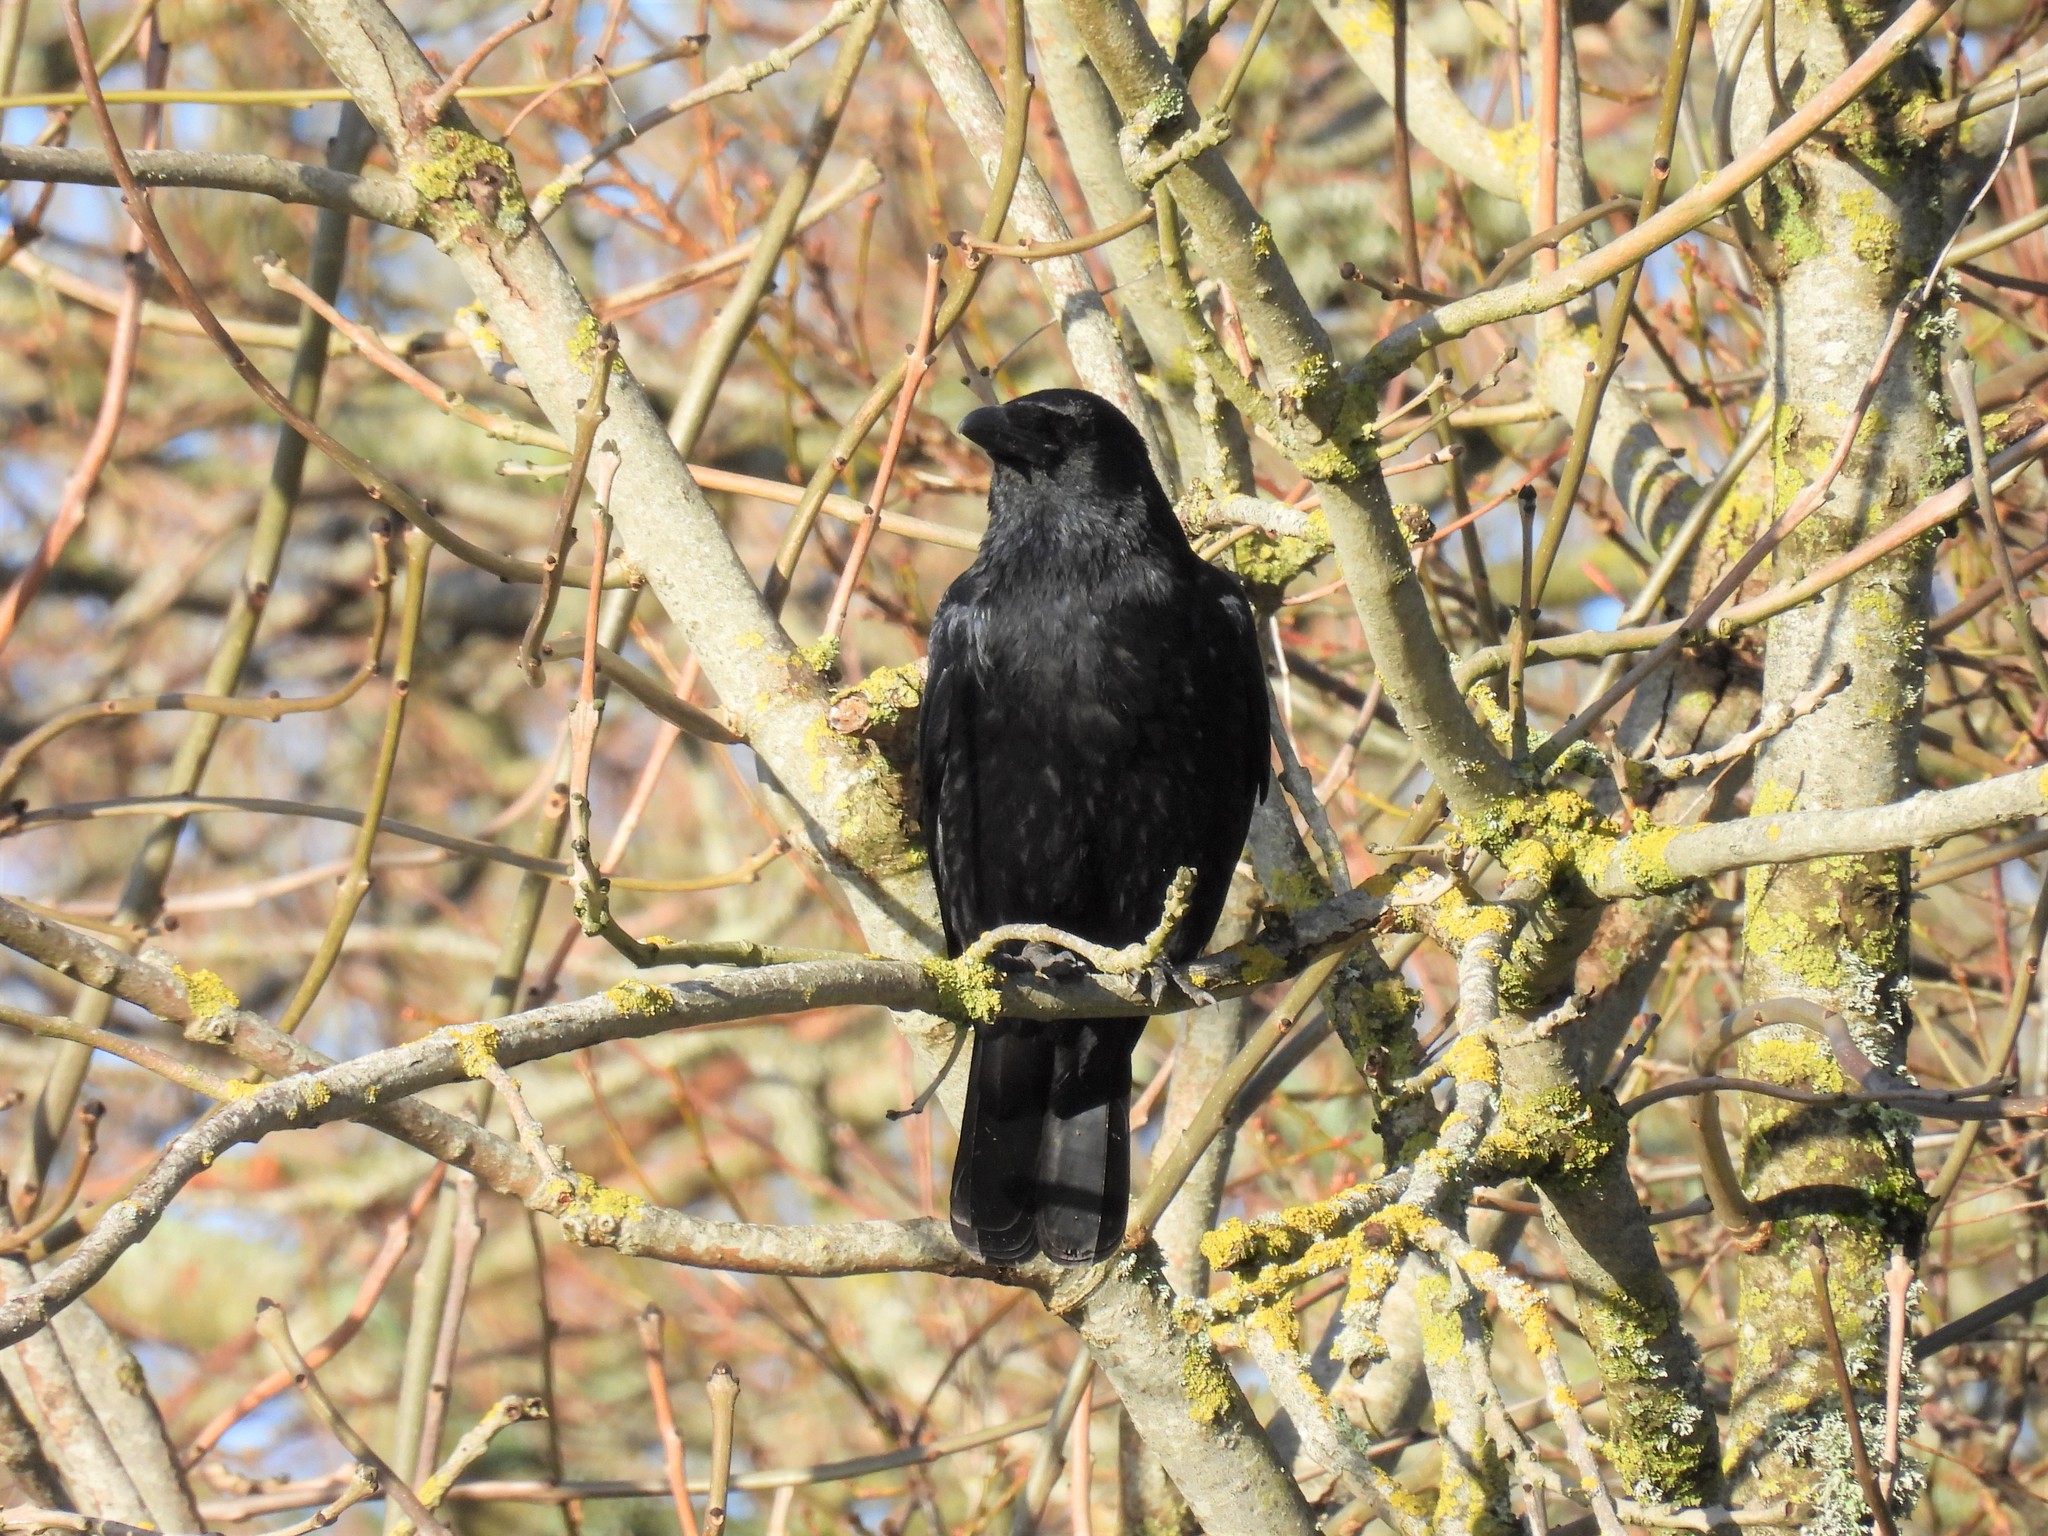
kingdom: Animalia
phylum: Chordata
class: Aves
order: Passeriformes
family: Corvidae
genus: Corvus
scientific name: Corvus corone
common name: Carrion crow
